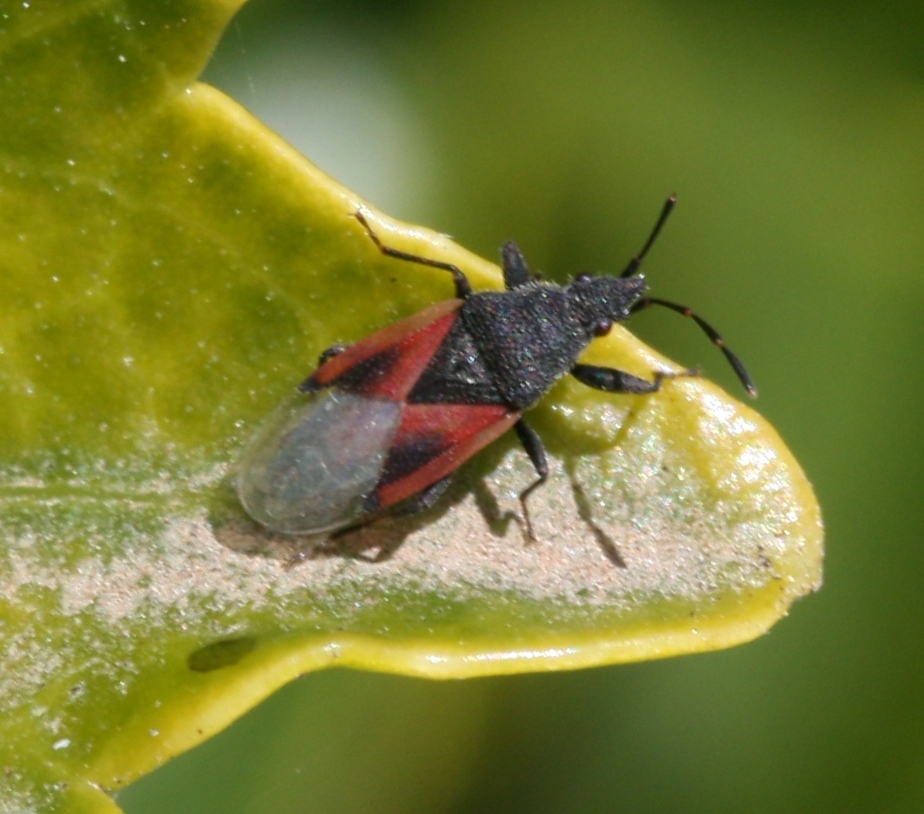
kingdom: Animalia
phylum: Arthropoda
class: Insecta
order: Hemiptera
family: Oxycarenidae
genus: Oxycarenus
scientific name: Oxycarenus lavaterae
